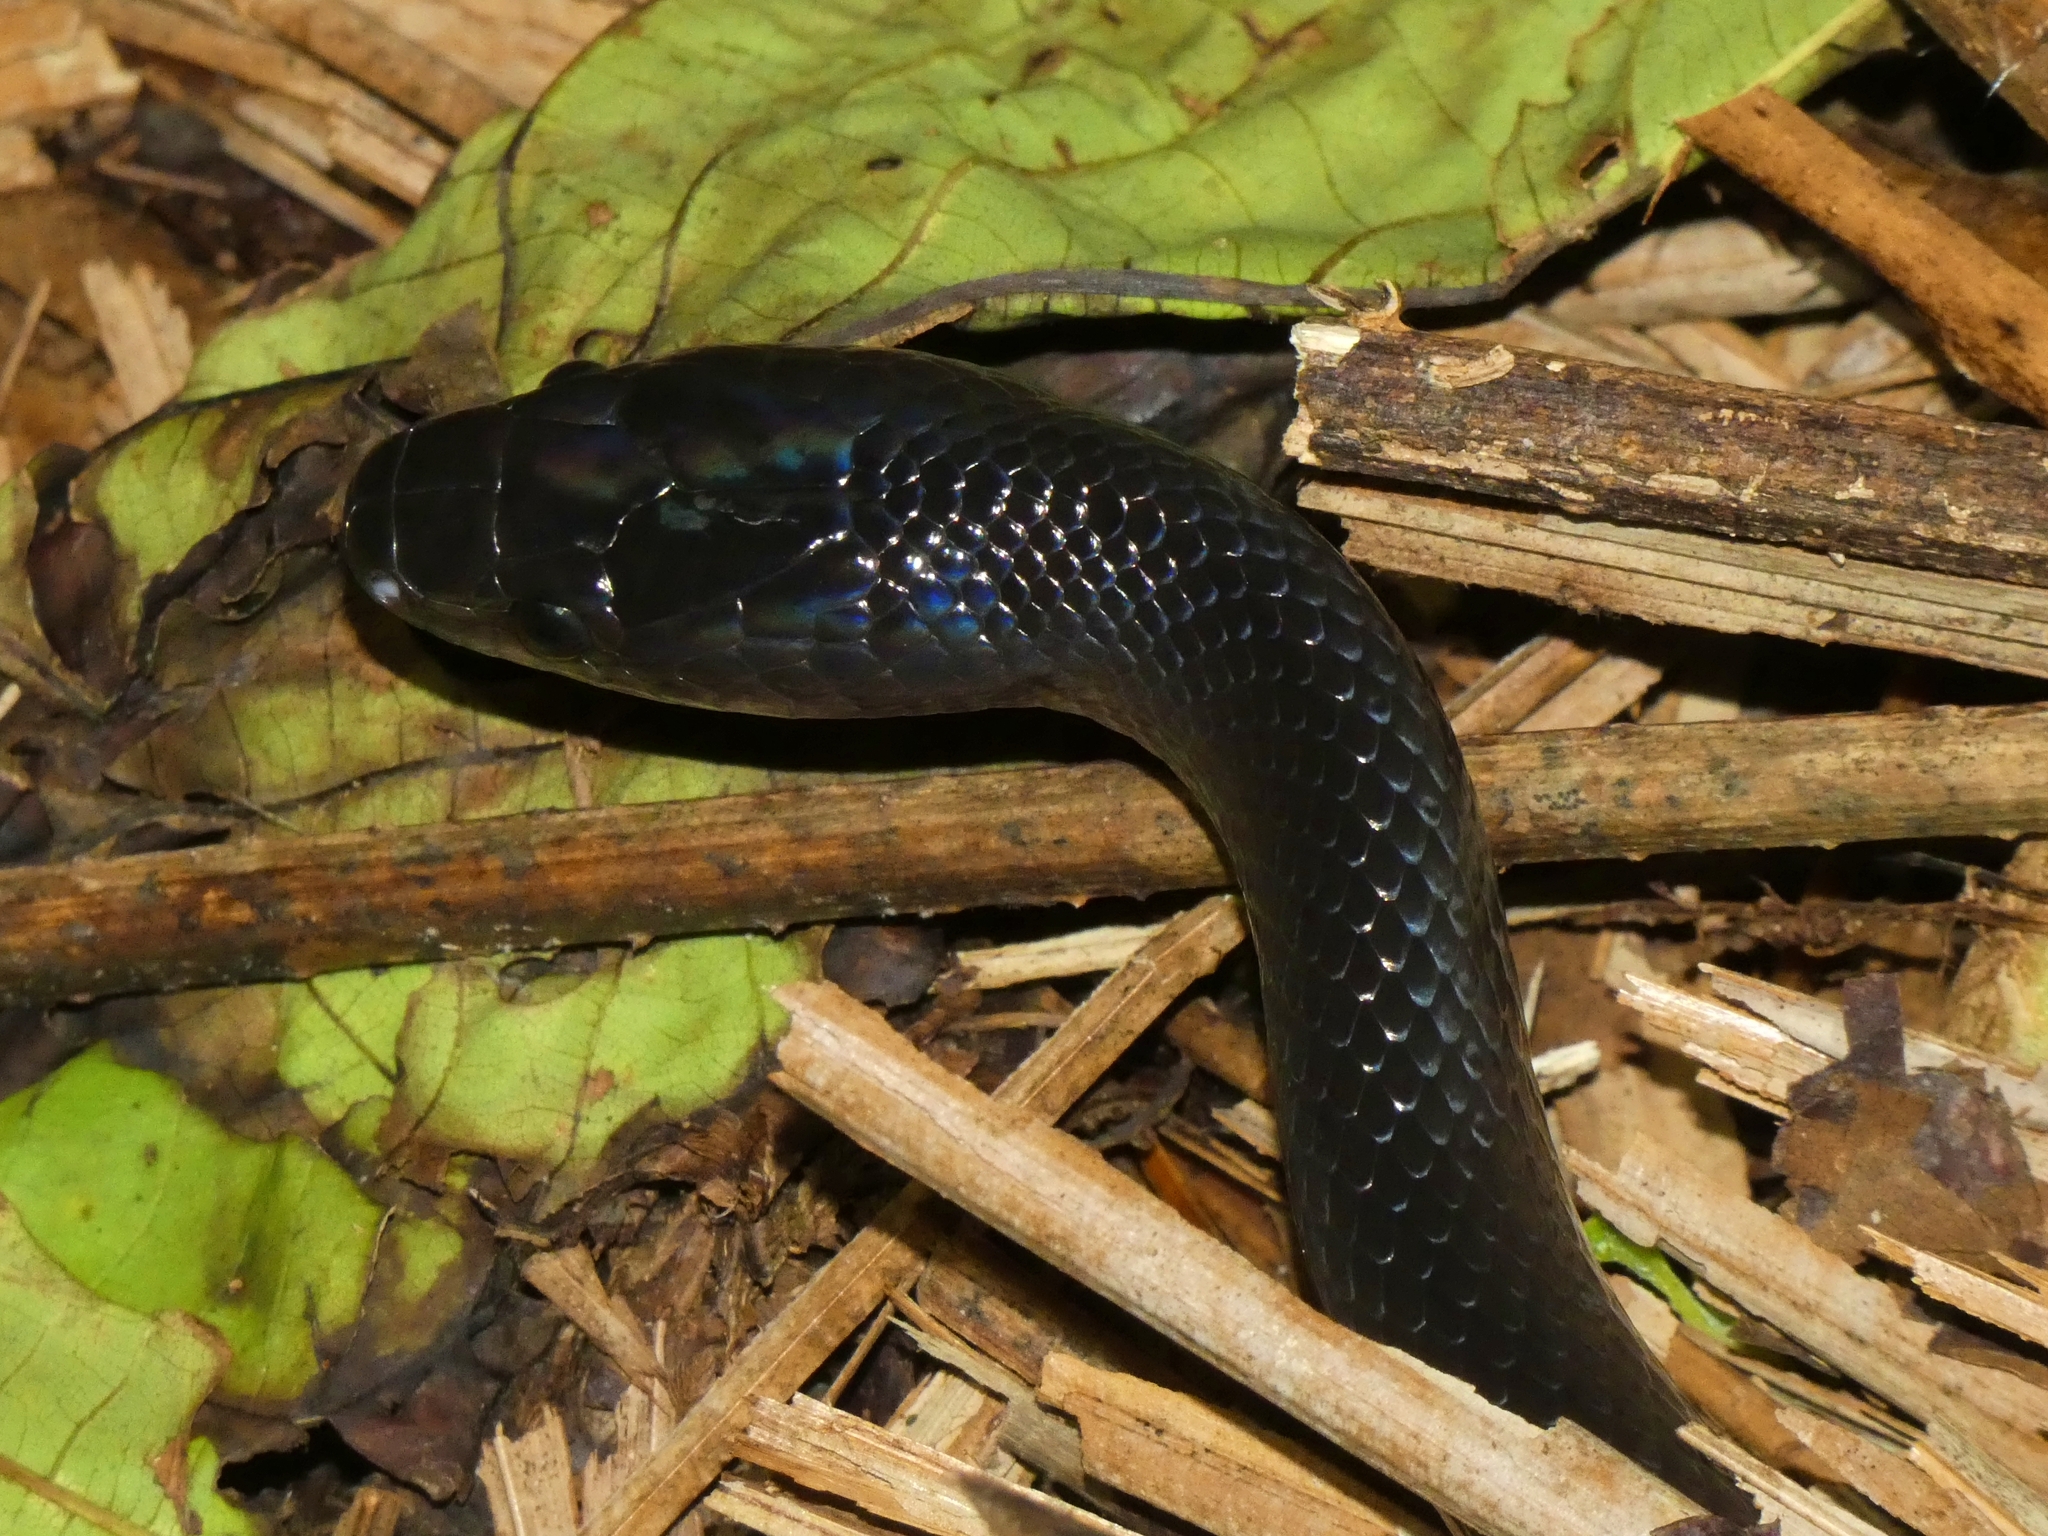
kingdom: Animalia
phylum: Chordata
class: Squamata
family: Colubridae
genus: Stegonotus
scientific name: Stegonotus australis
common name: Australian groundsnake
